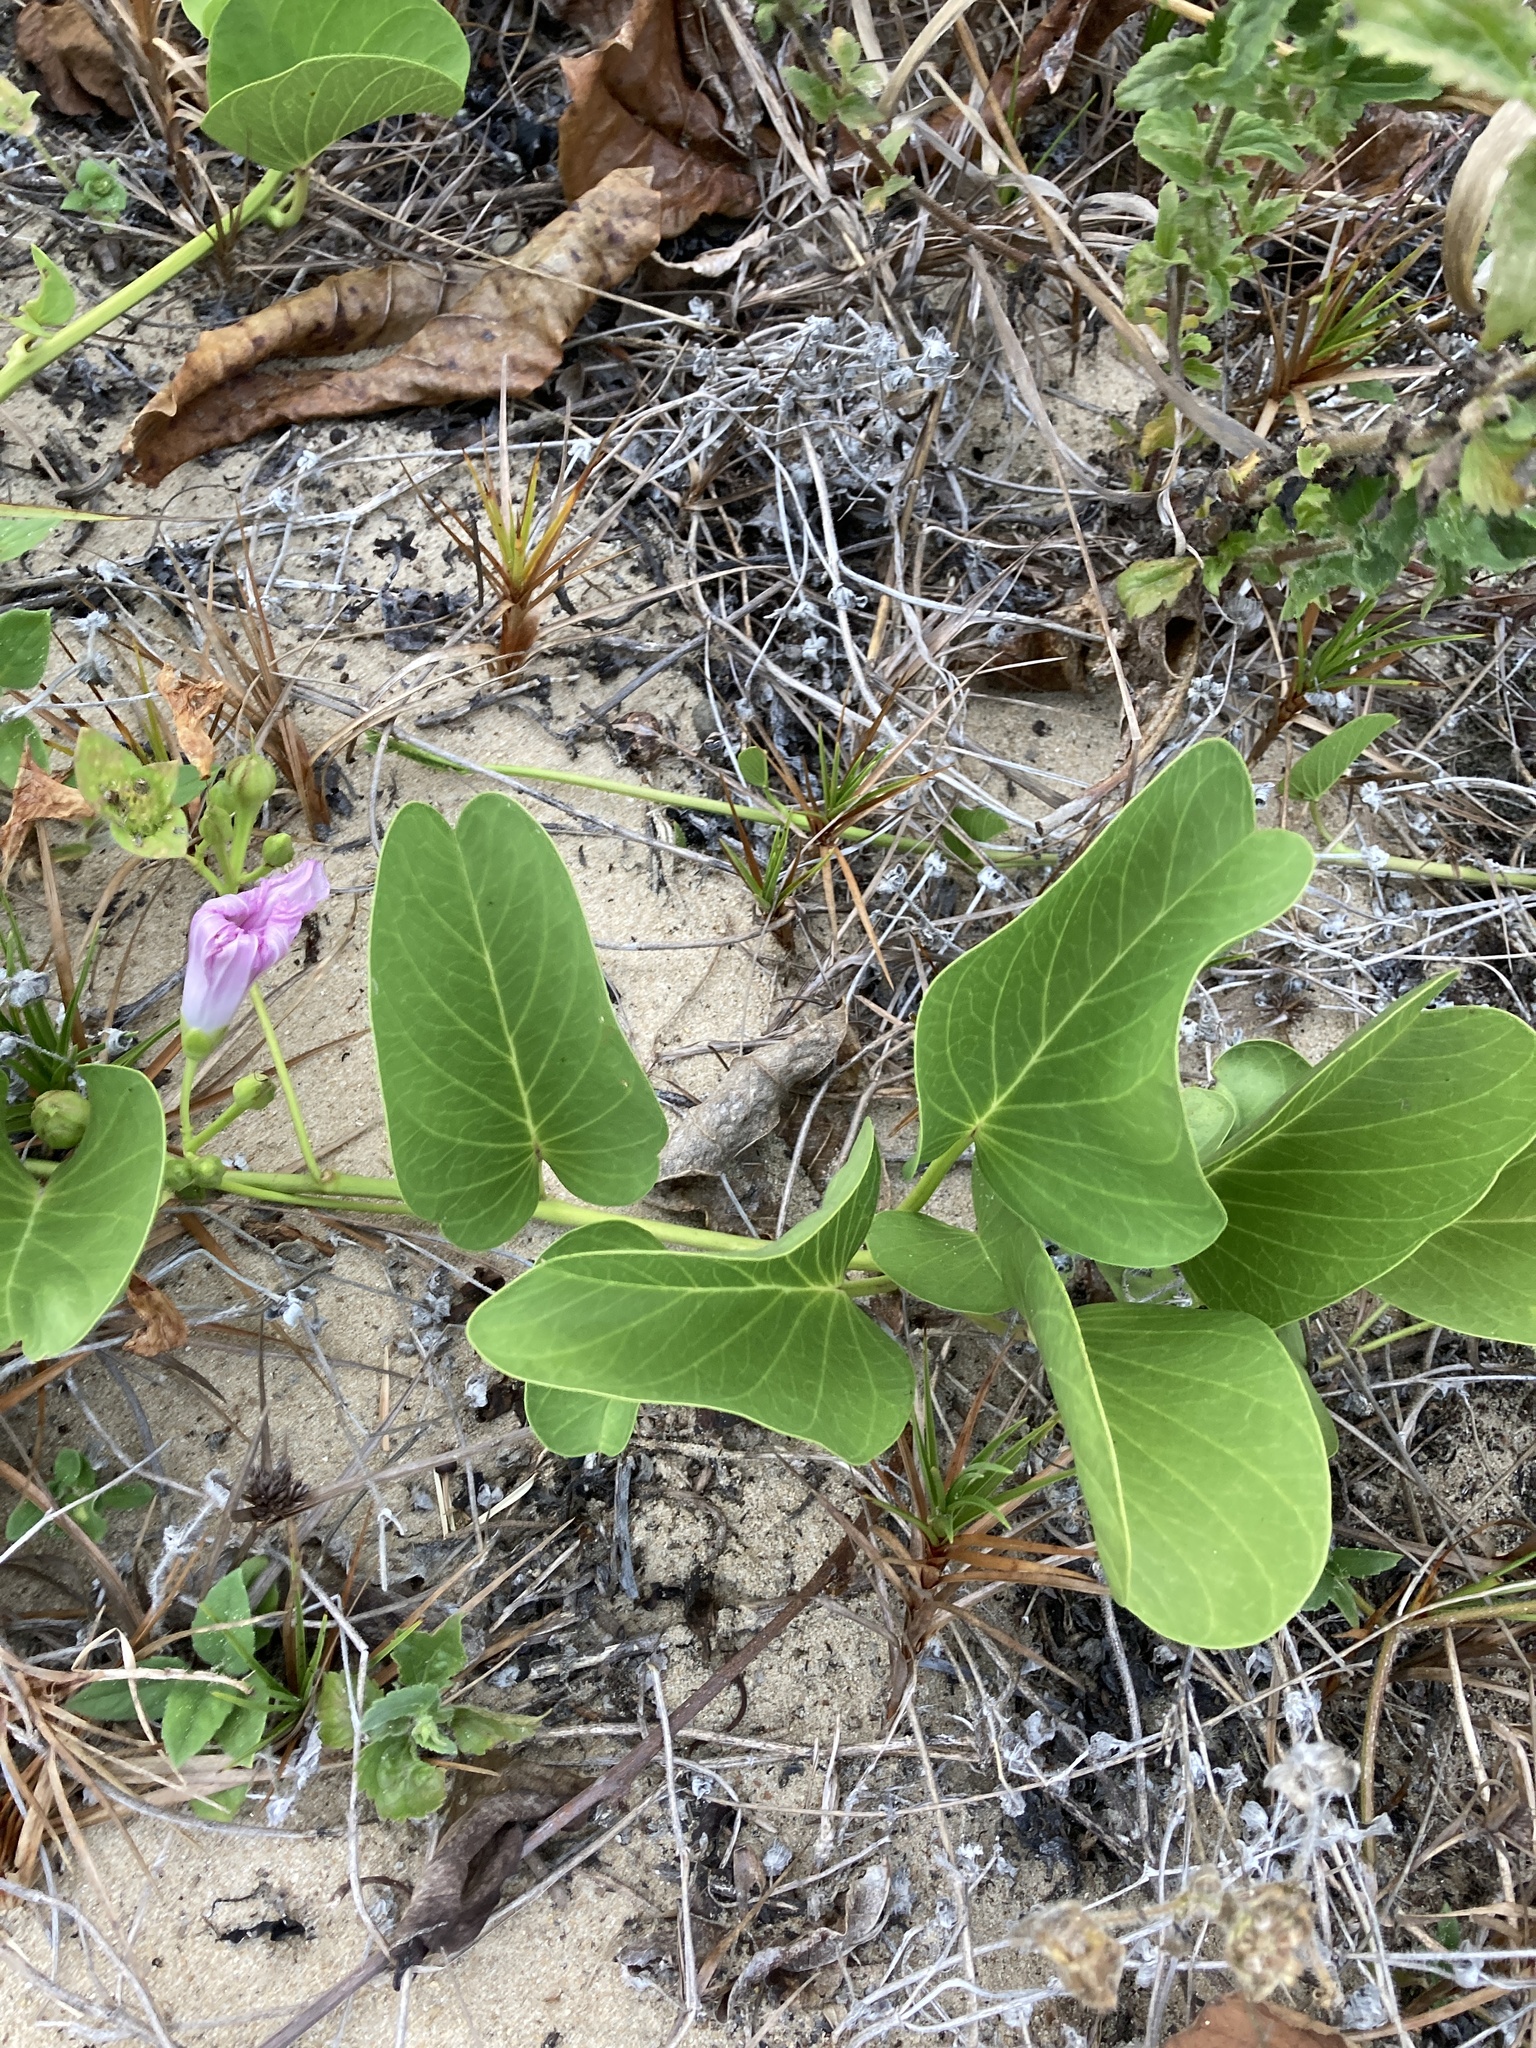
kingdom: Plantae
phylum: Tracheophyta
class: Magnoliopsida
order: Solanales
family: Convolvulaceae
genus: Ipomoea
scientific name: Ipomoea pes-caprae
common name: Beach morning glory
